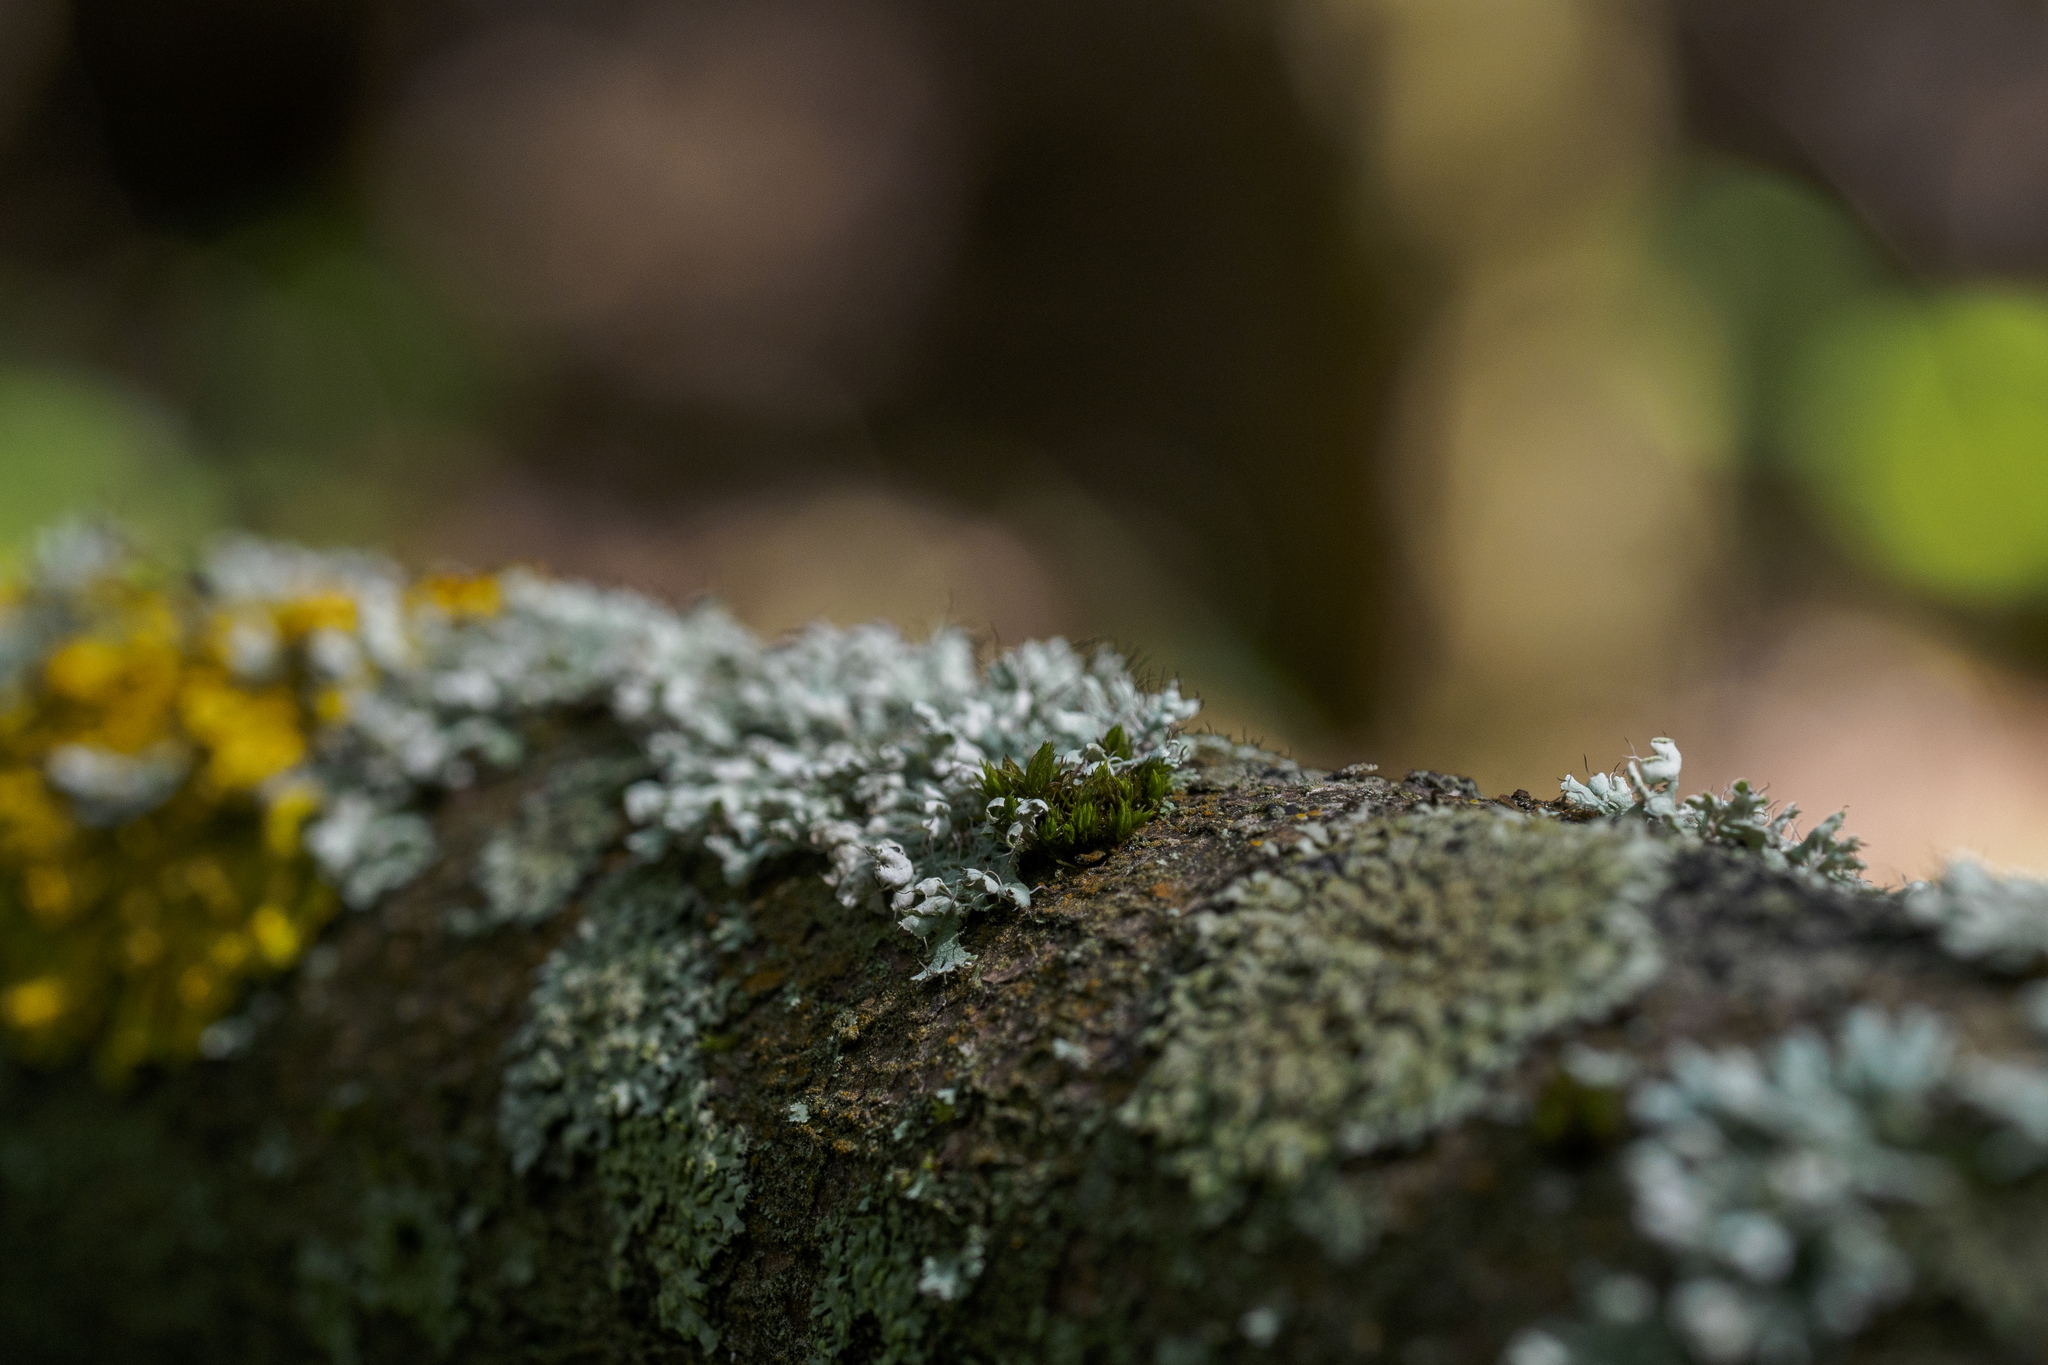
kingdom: Fungi
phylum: Ascomycota
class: Lecanoromycetes
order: Caliciales
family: Physciaceae
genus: Physcia
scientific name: Physcia adscendens
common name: Hooded rosette lichen
